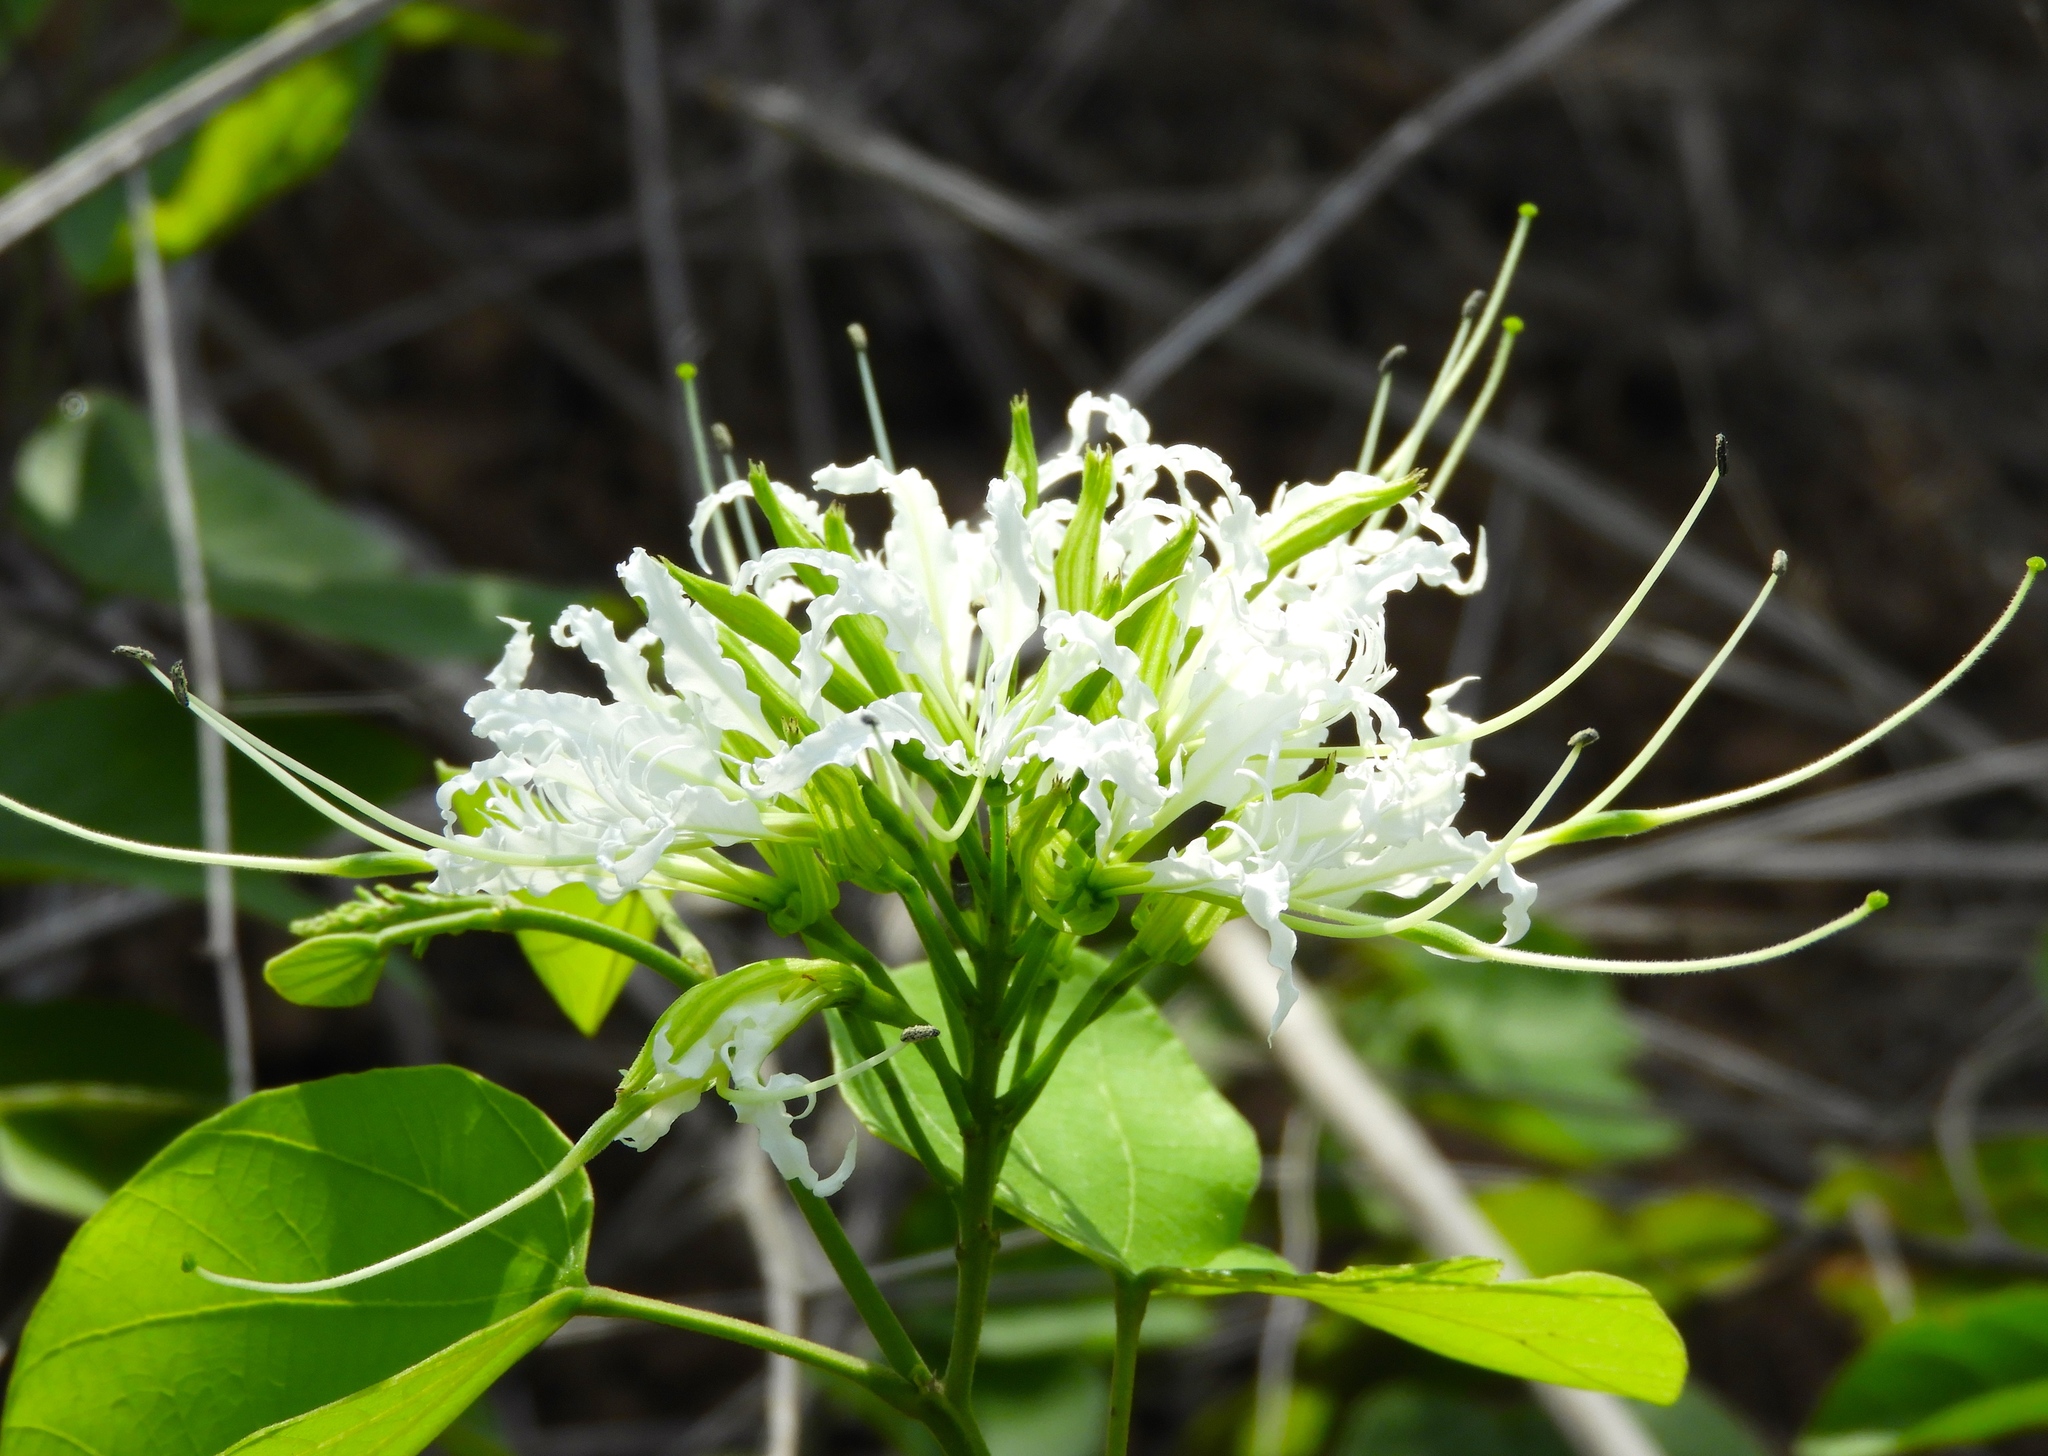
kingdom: Plantae
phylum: Tracheophyta
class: Magnoliopsida
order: Fabales
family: Fabaceae
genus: Bauhinia
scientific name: Bauhinia divaricata
